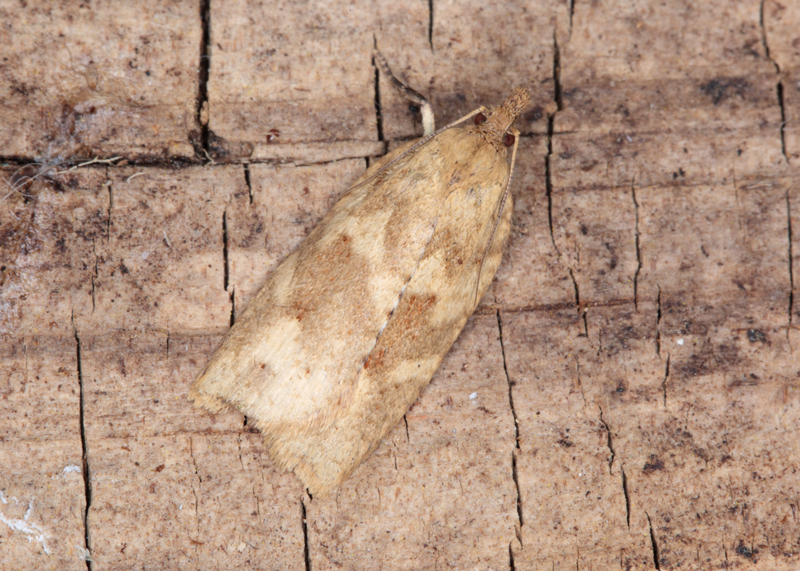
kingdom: Animalia
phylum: Arthropoda
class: Insecta
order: Lepidoptera
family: Tortricidae
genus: Planotortrix
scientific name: Planotortrix octoides
